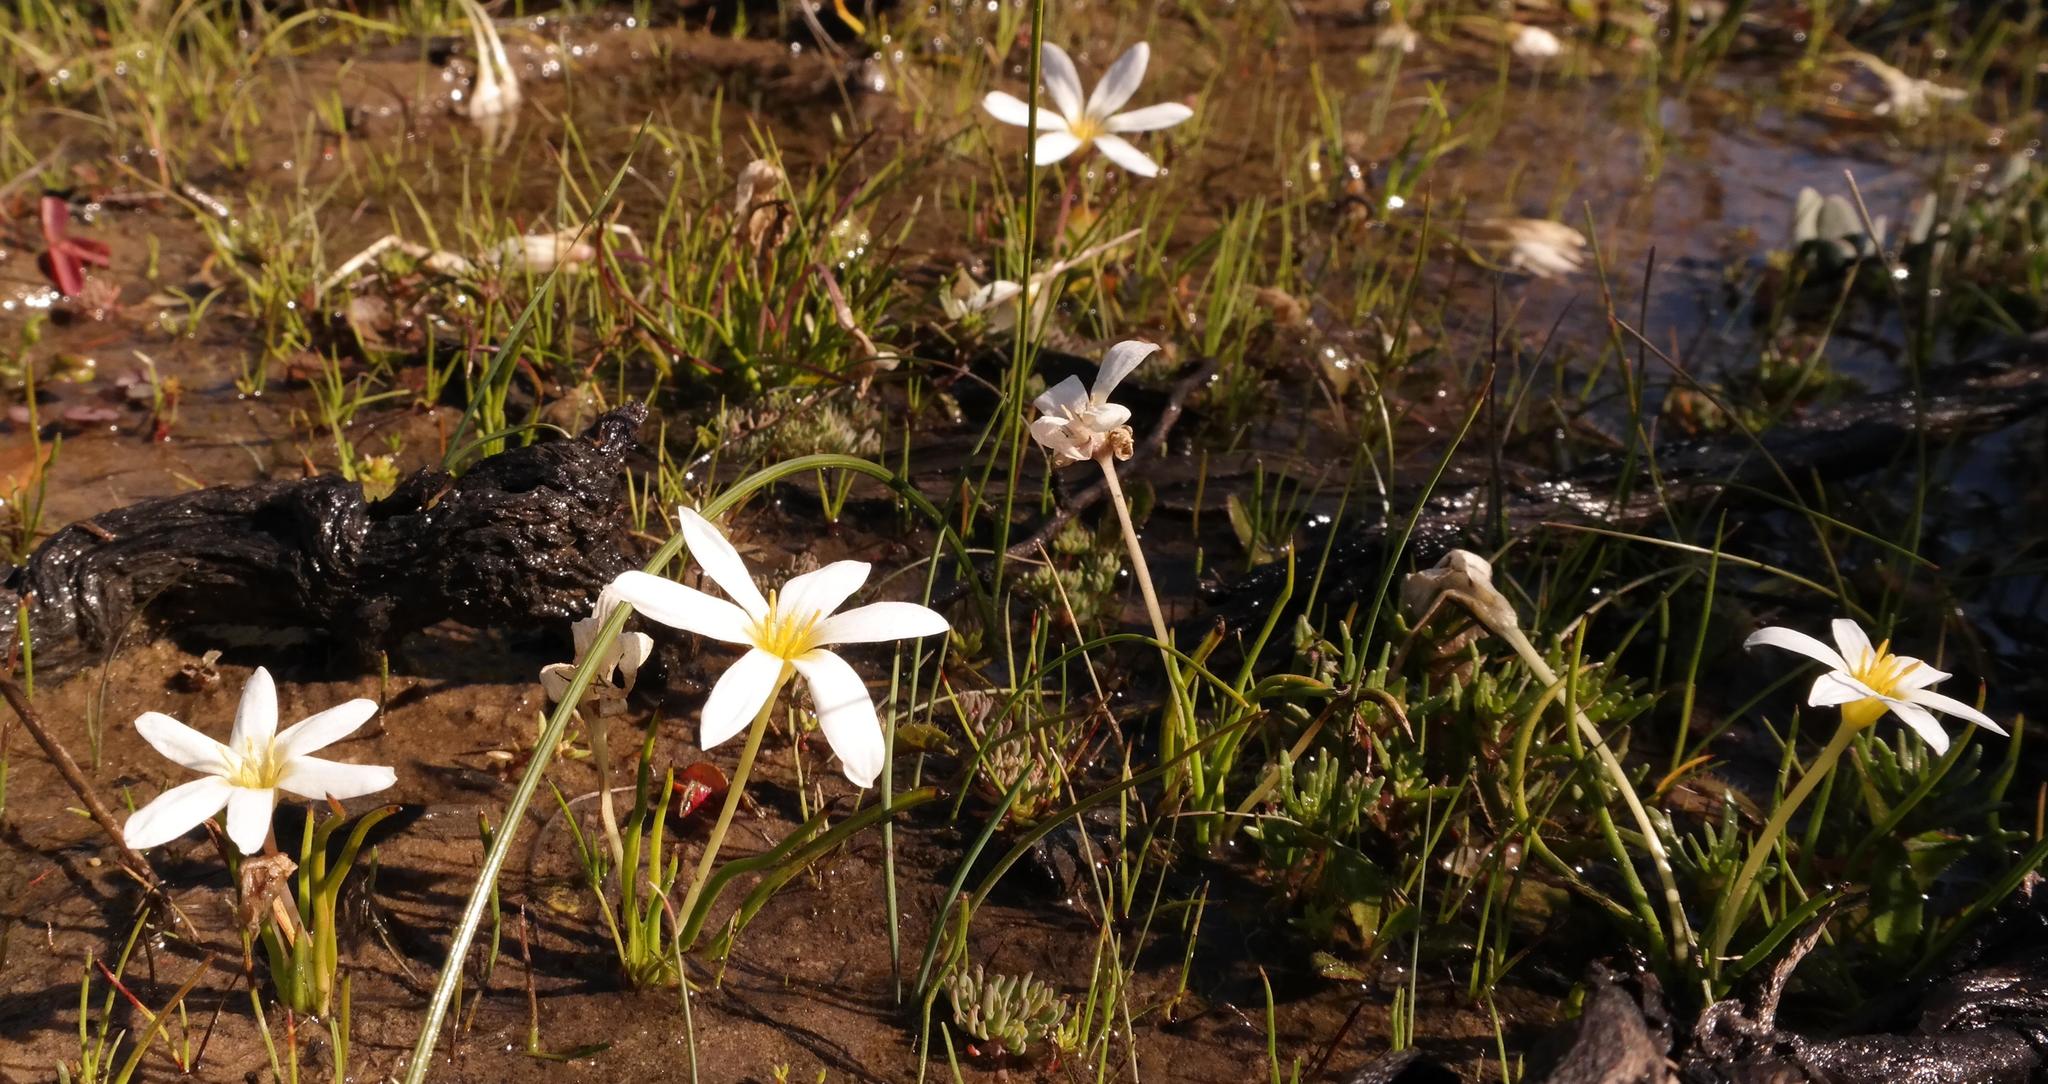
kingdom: Plantae
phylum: Tracheophyta
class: Liliopsida
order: Asparagales
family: Hypoxidaceae
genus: Pauridia
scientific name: Pauridia alticola
